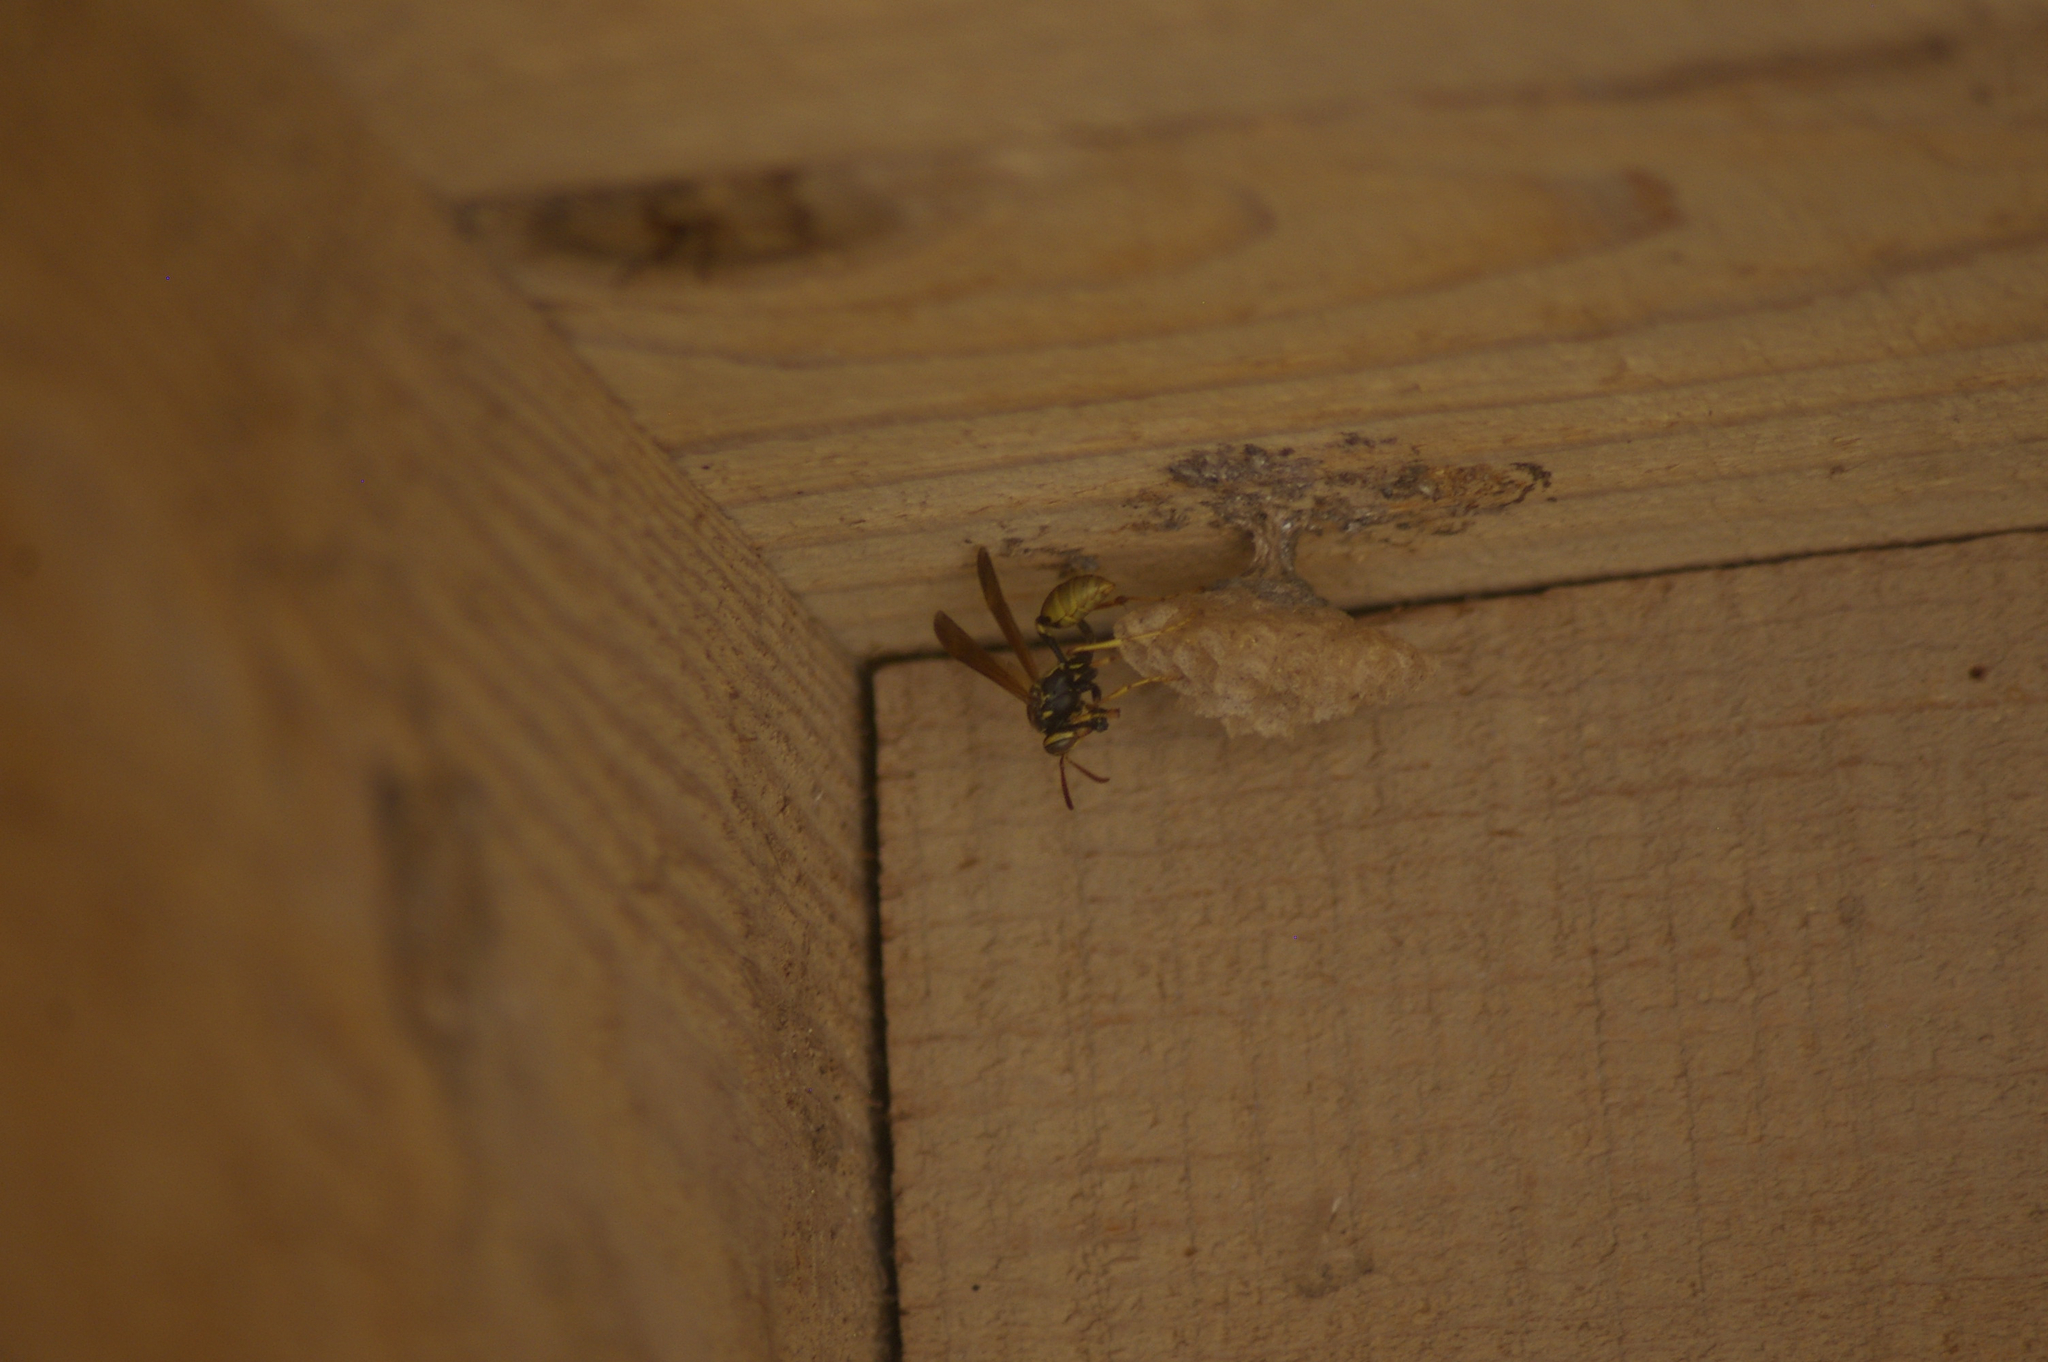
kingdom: Animalia
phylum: Arthropoda
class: Insecta
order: Hymenoptera
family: Vespidae
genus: Mischocyttarus
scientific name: Mischocyttarus flavitarsis
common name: Wasp
